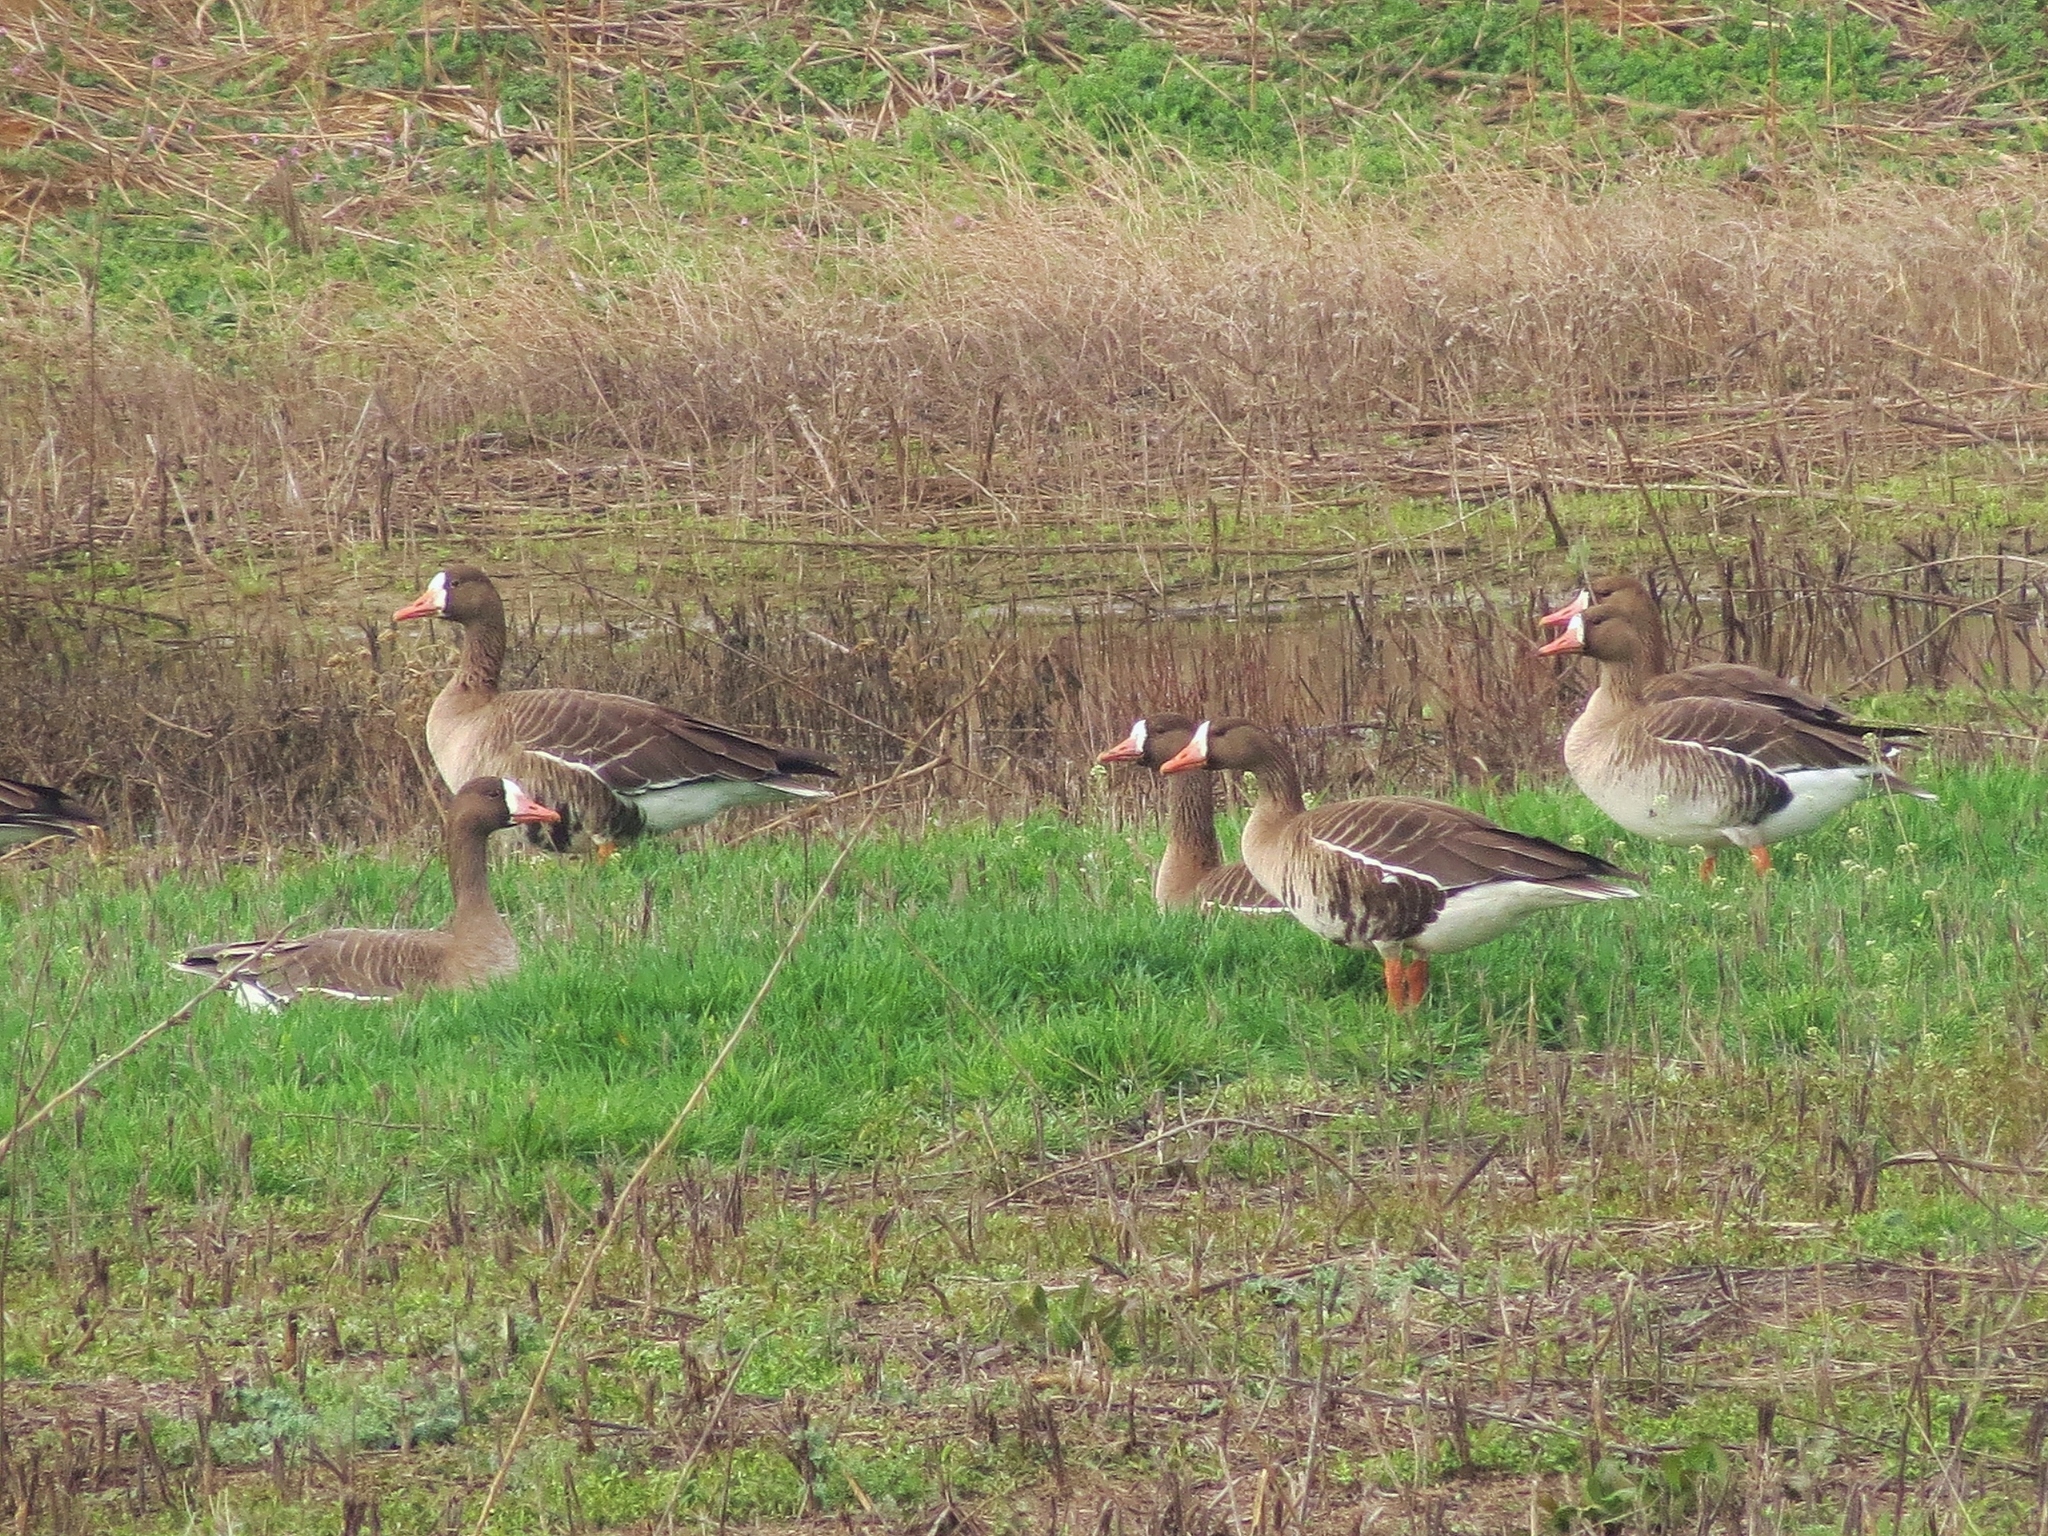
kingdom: Animalia
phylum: Chordata
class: Aves
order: Anseriformes
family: Anatidae
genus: Anser
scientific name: Anser albifrons
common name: Greater white-fronted goose
